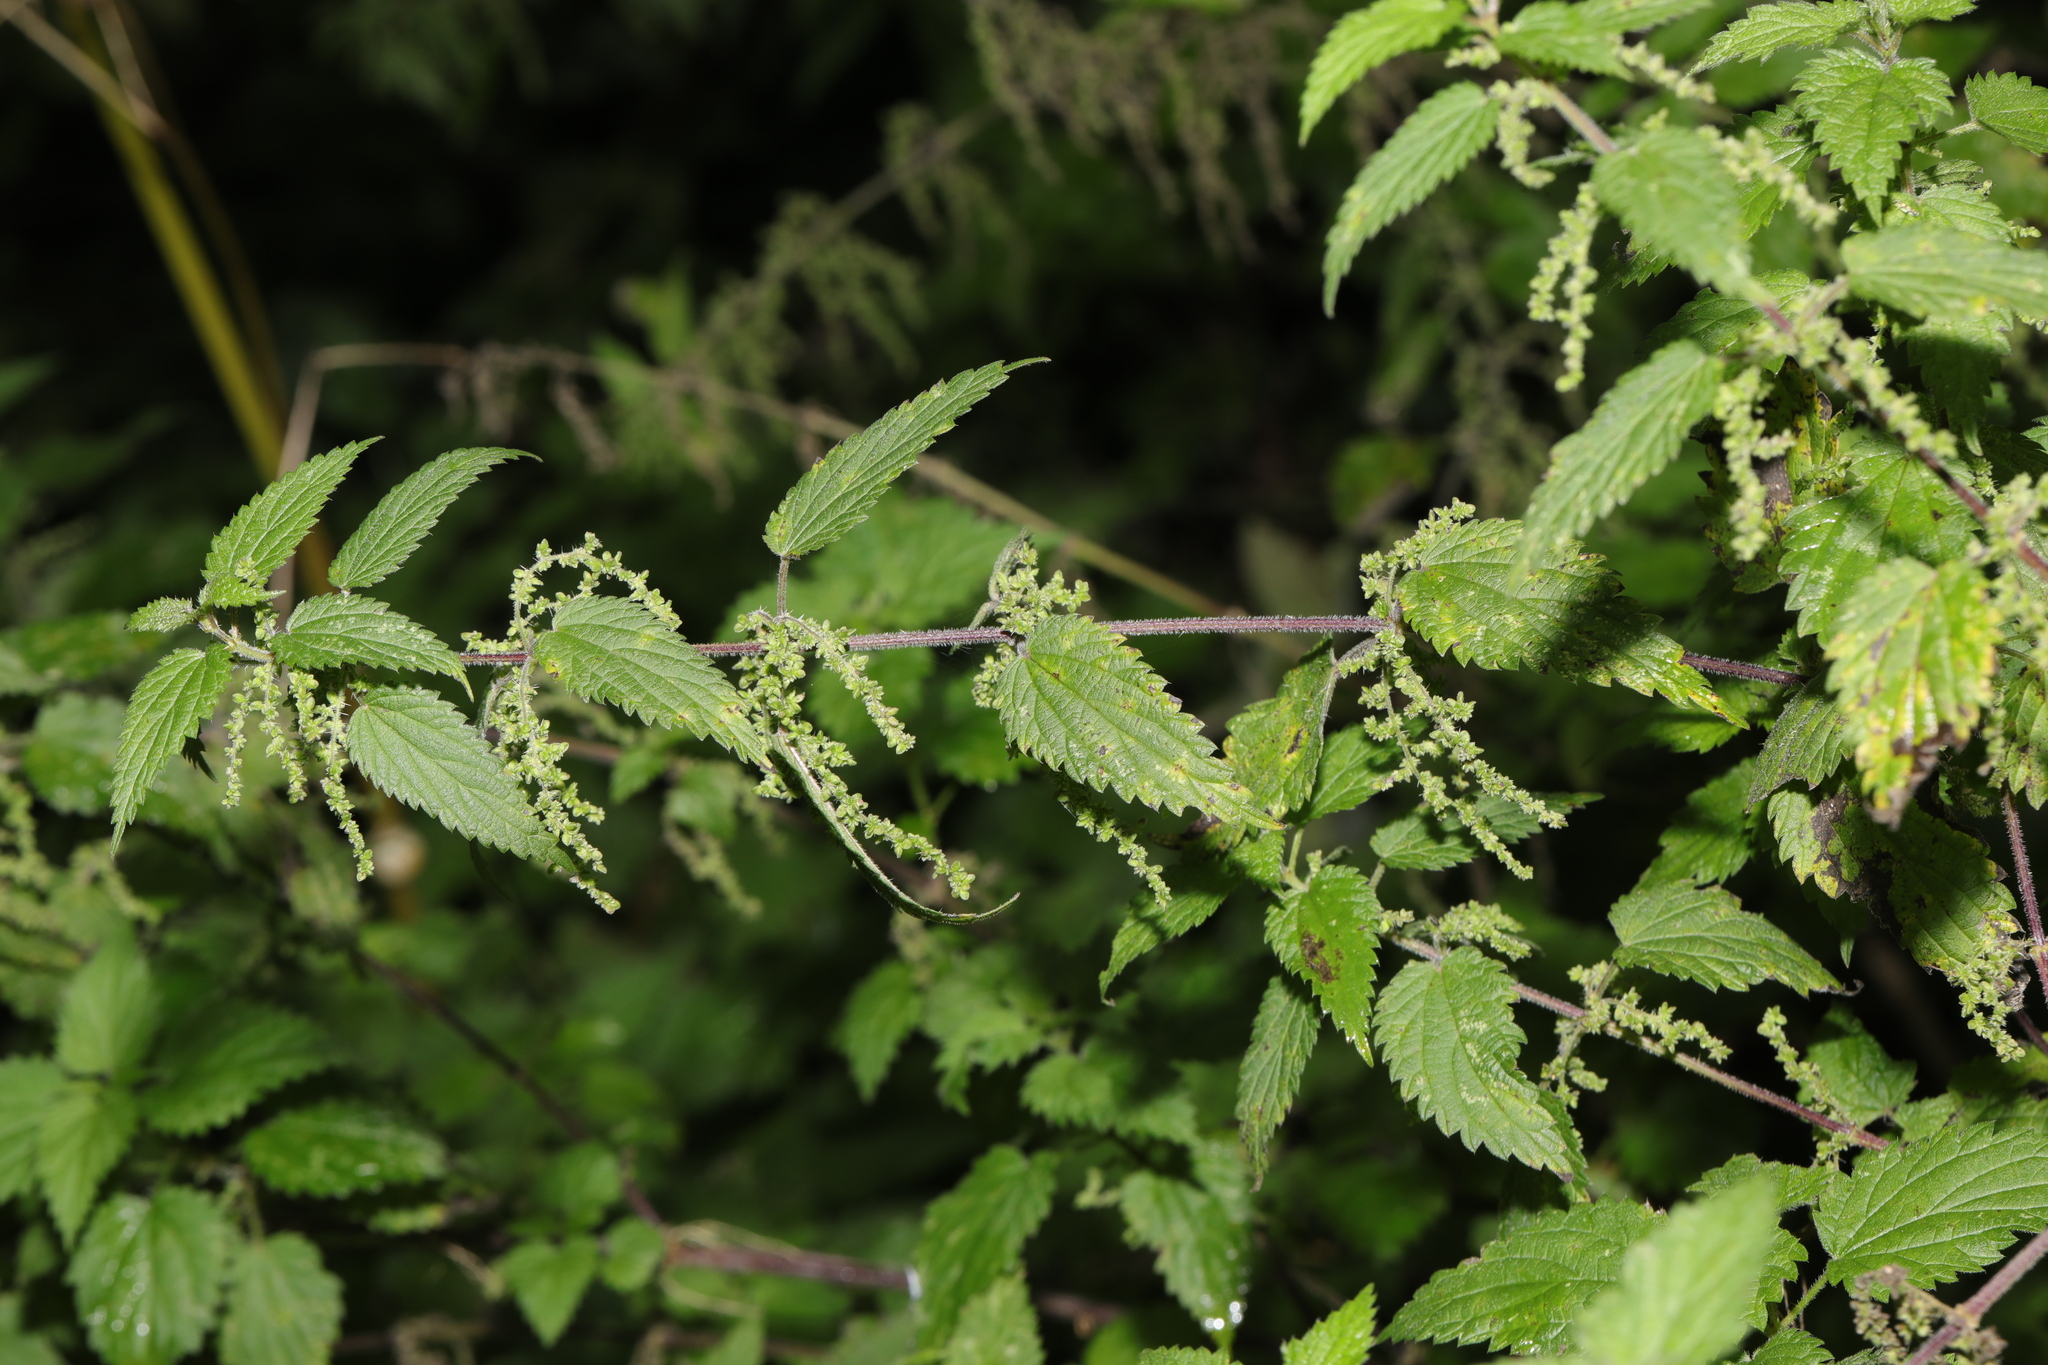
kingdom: Plantae
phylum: Tracheophyta
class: Magnoliopsida
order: Rosales
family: Urticaceae
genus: Urtica
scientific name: Urtica dioica
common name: Common nettle
